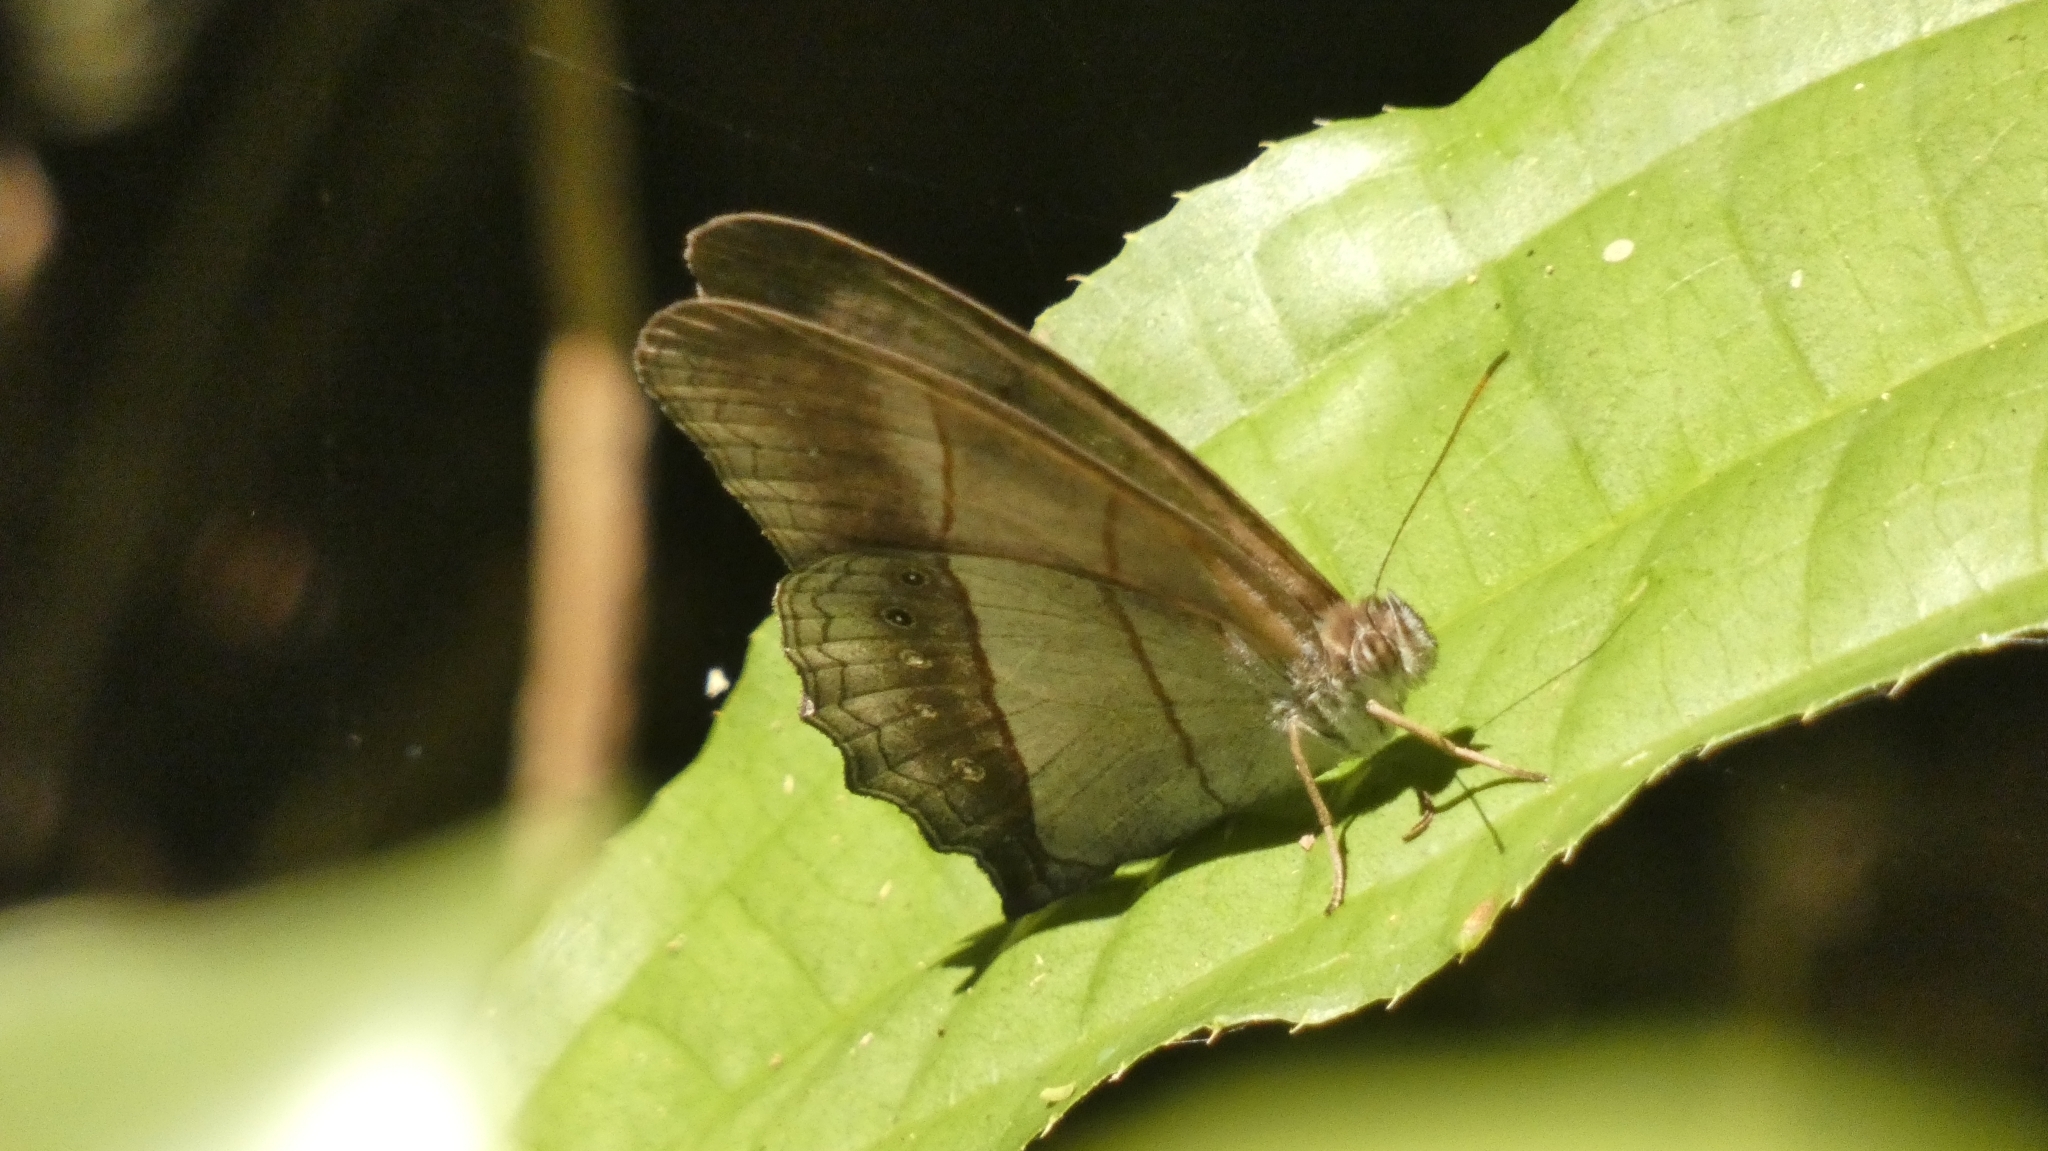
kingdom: Animalia
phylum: Arthropoda
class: Insecta
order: Lepidoptera
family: Nymphalidae
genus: Archeuptychia
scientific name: Archeuptychia cluena
